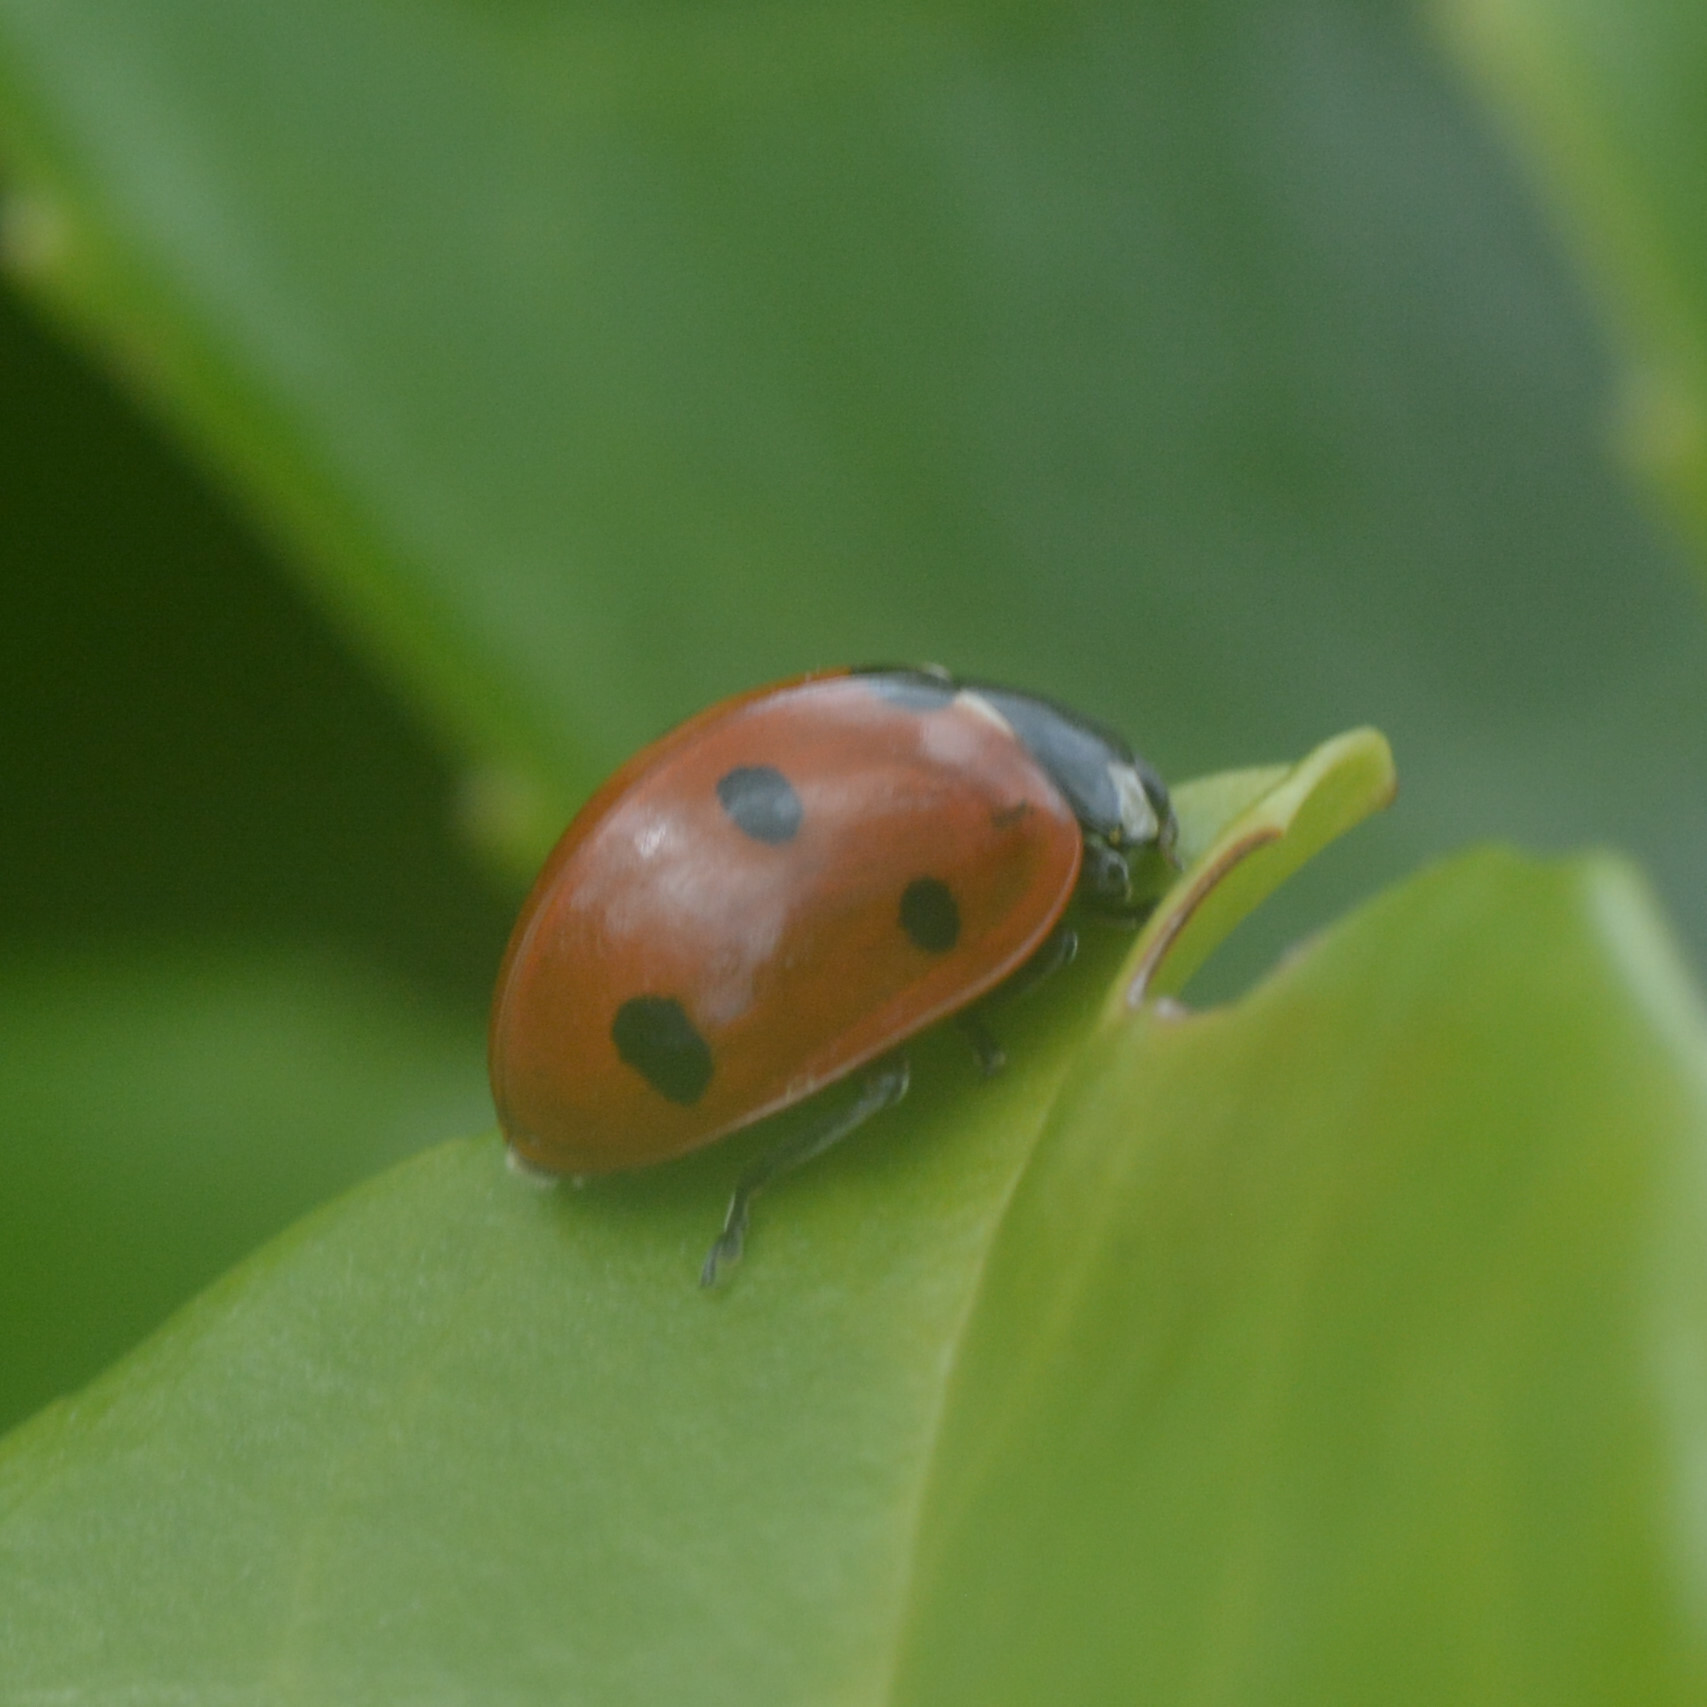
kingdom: Animalia
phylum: Arthropoda
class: Insecta
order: Coleoptera
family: Coccinellidae
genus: Coccinella
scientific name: Coccinella septempunctata
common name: Sevenspotted lady beetle
